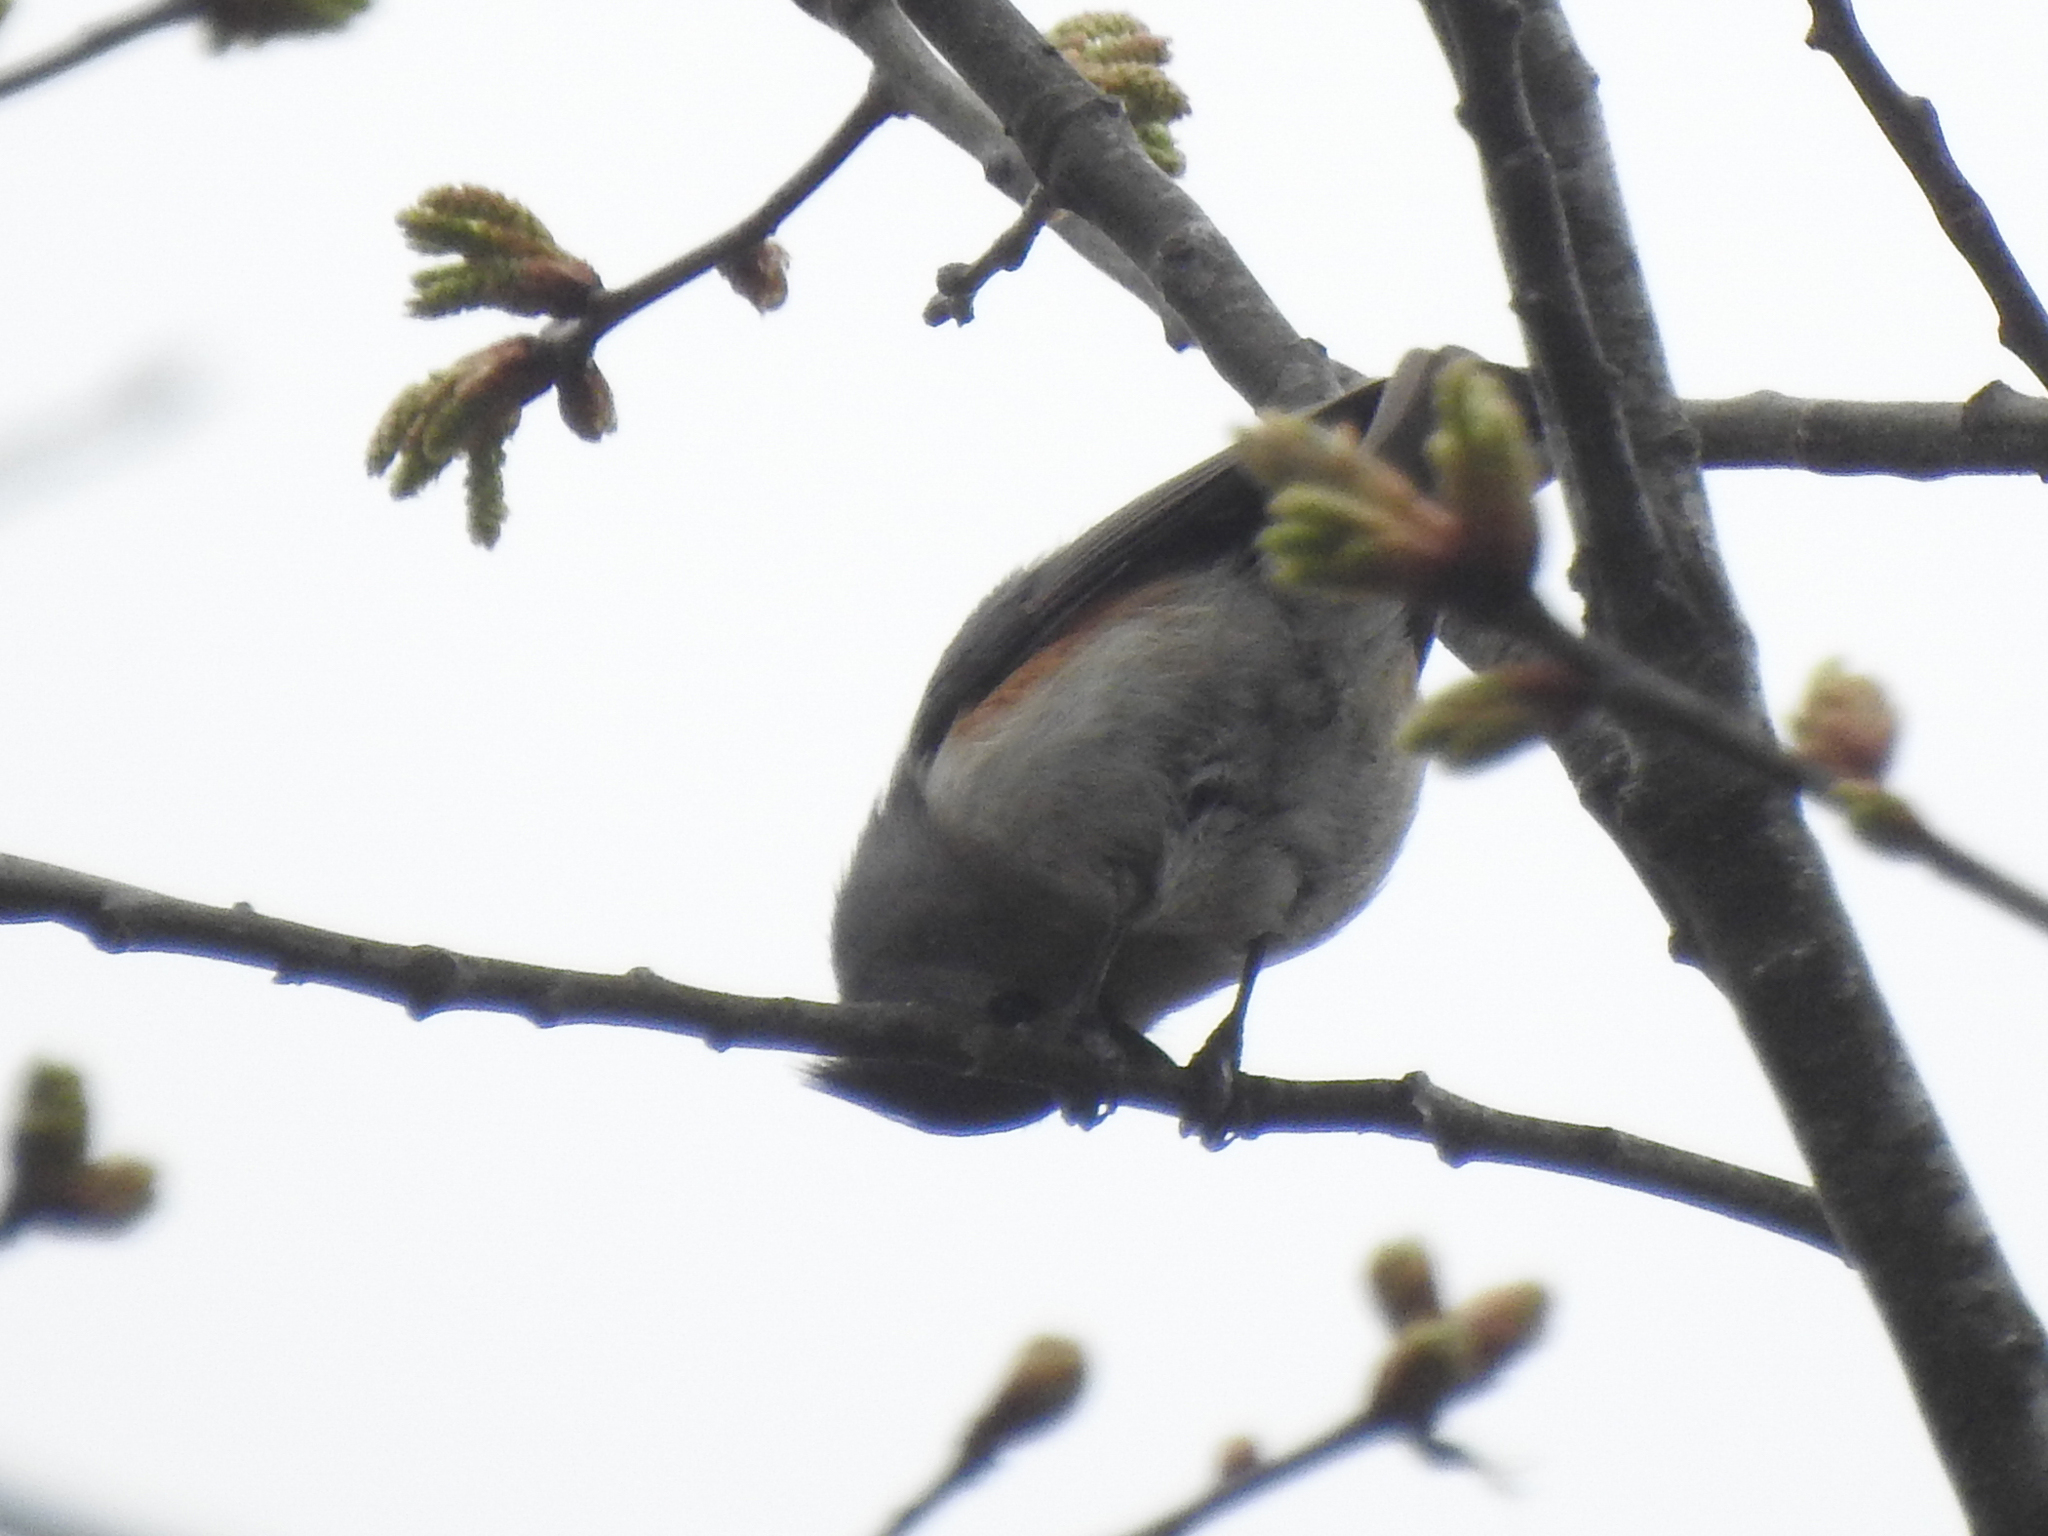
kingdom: Animalia
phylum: Chordata
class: Aves
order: Passeriformes
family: Paridae
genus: Baeolophus
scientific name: Baeolophus bicolor
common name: Tufted titmouse
